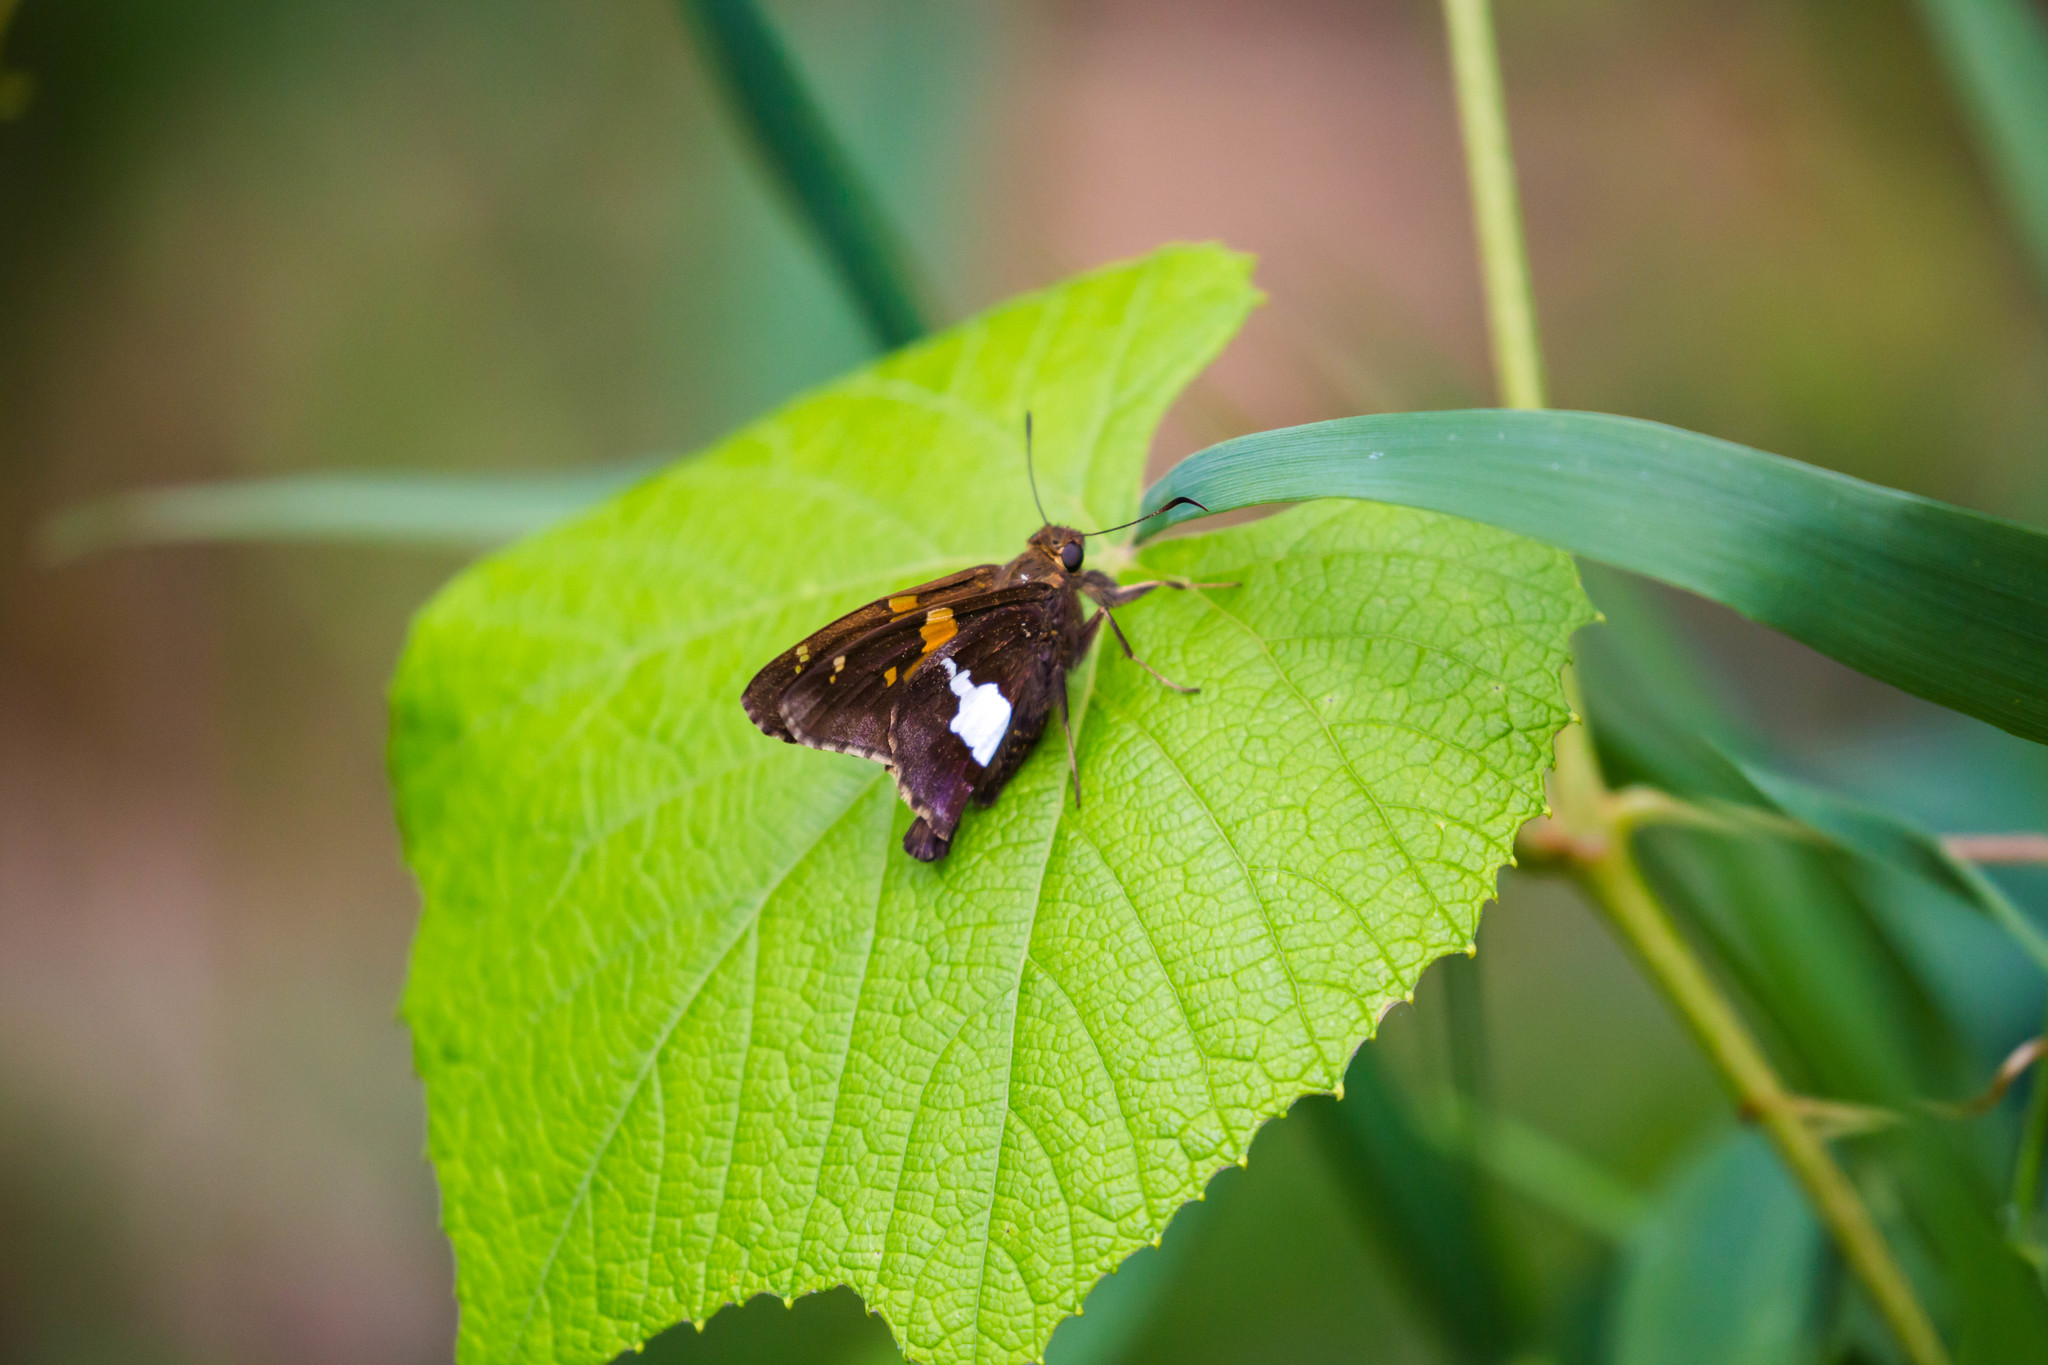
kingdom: Animalia
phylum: Arthropoda
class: Insecta
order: Lepidoptera
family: Hesperiidae
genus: Epargyreus
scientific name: Epargyreus clarus
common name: Silver-spotted skipper
